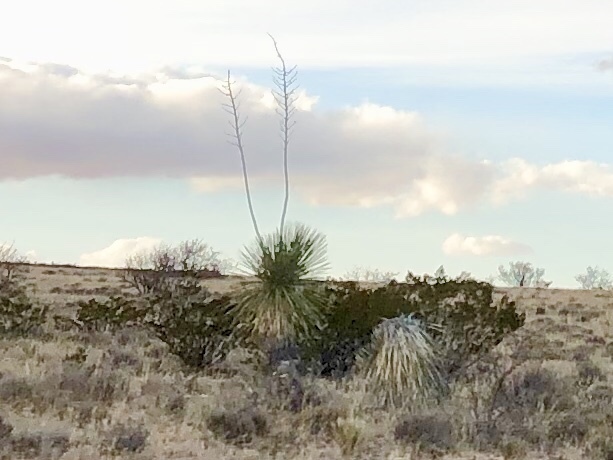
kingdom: Plantae
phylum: Tracheophyta
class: Liliopsida
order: Asparagales
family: Asparagaceae
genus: Yucca
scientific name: Yucca elata
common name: Palmella
